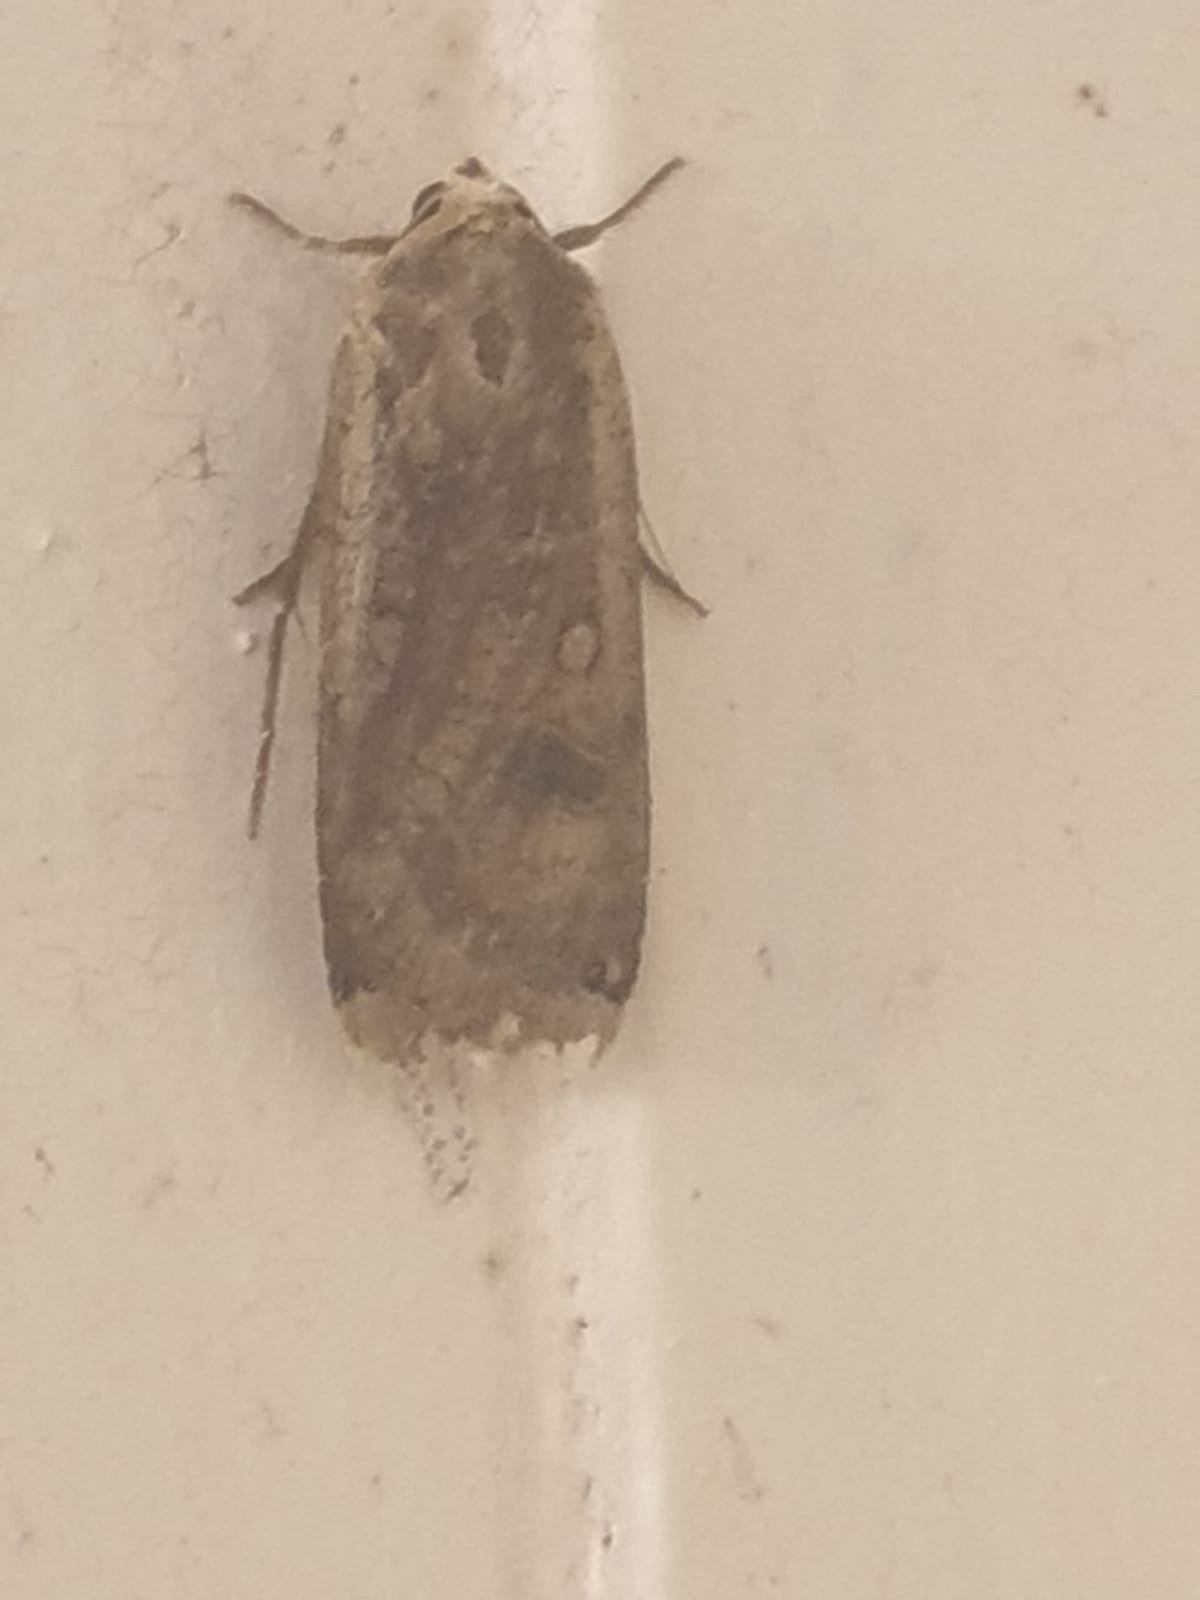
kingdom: Animalia
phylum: Arthropoda
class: Insecta
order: Lepidoptera
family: Noctuidae
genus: Noctua
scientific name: Noctua pronuba
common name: Large yellow underwing
